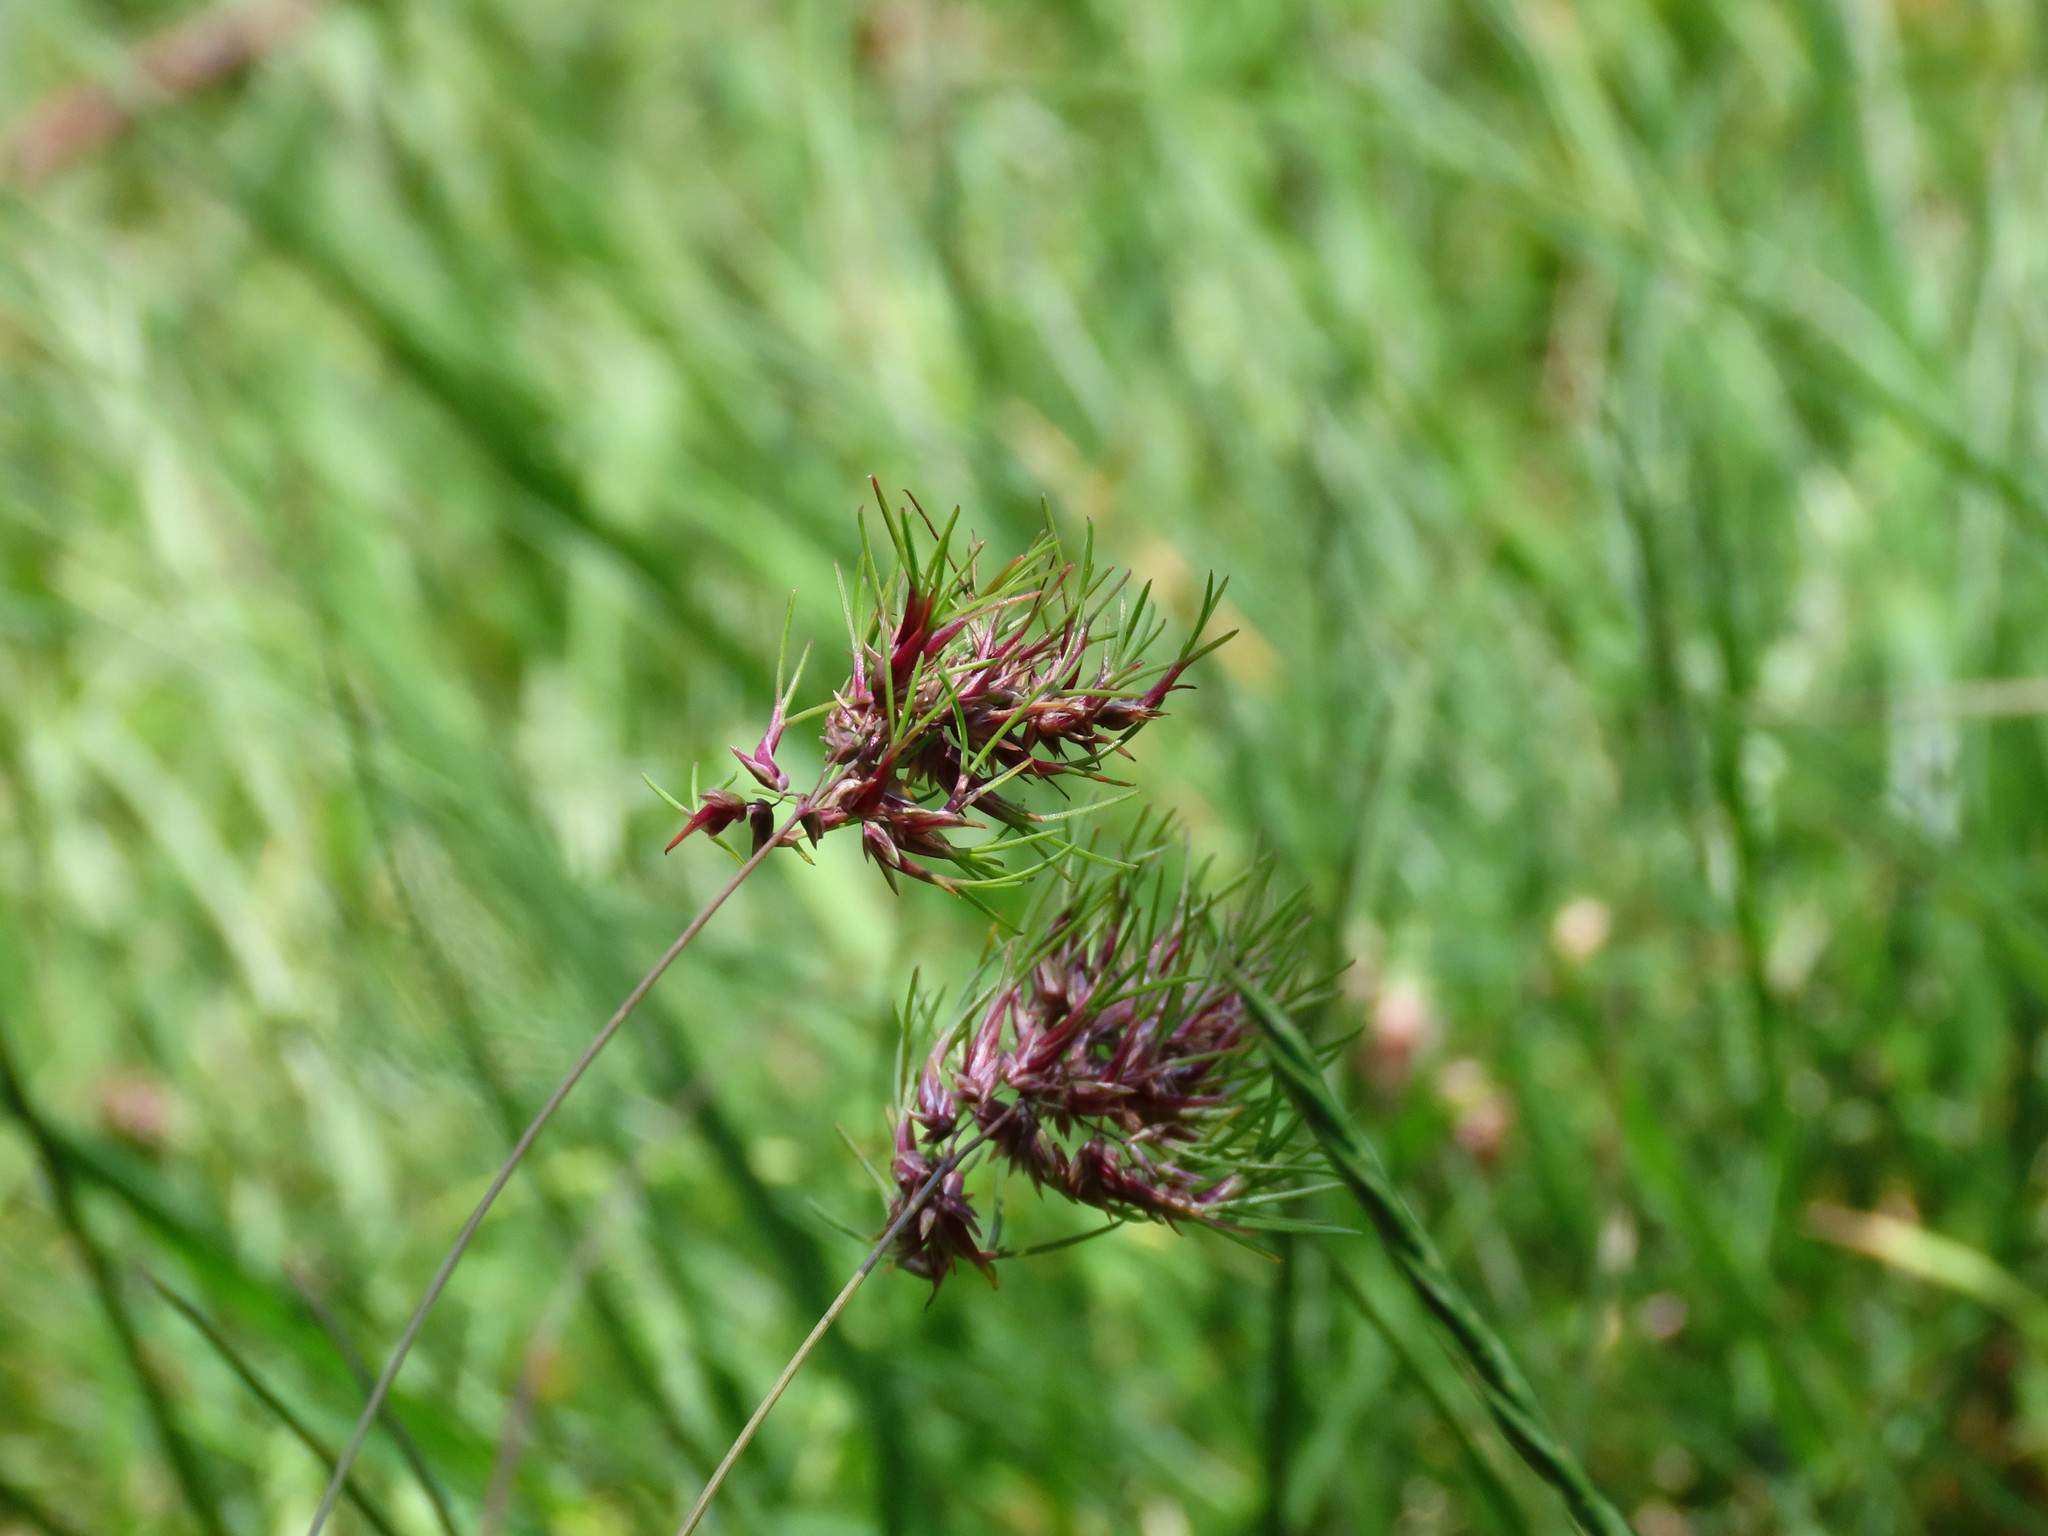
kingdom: Plantae
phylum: Tracheophyta
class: Liliopsida
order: Poales
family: Poaceae
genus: Poa
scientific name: Poa bulbosa
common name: Bulbous bluegrass
